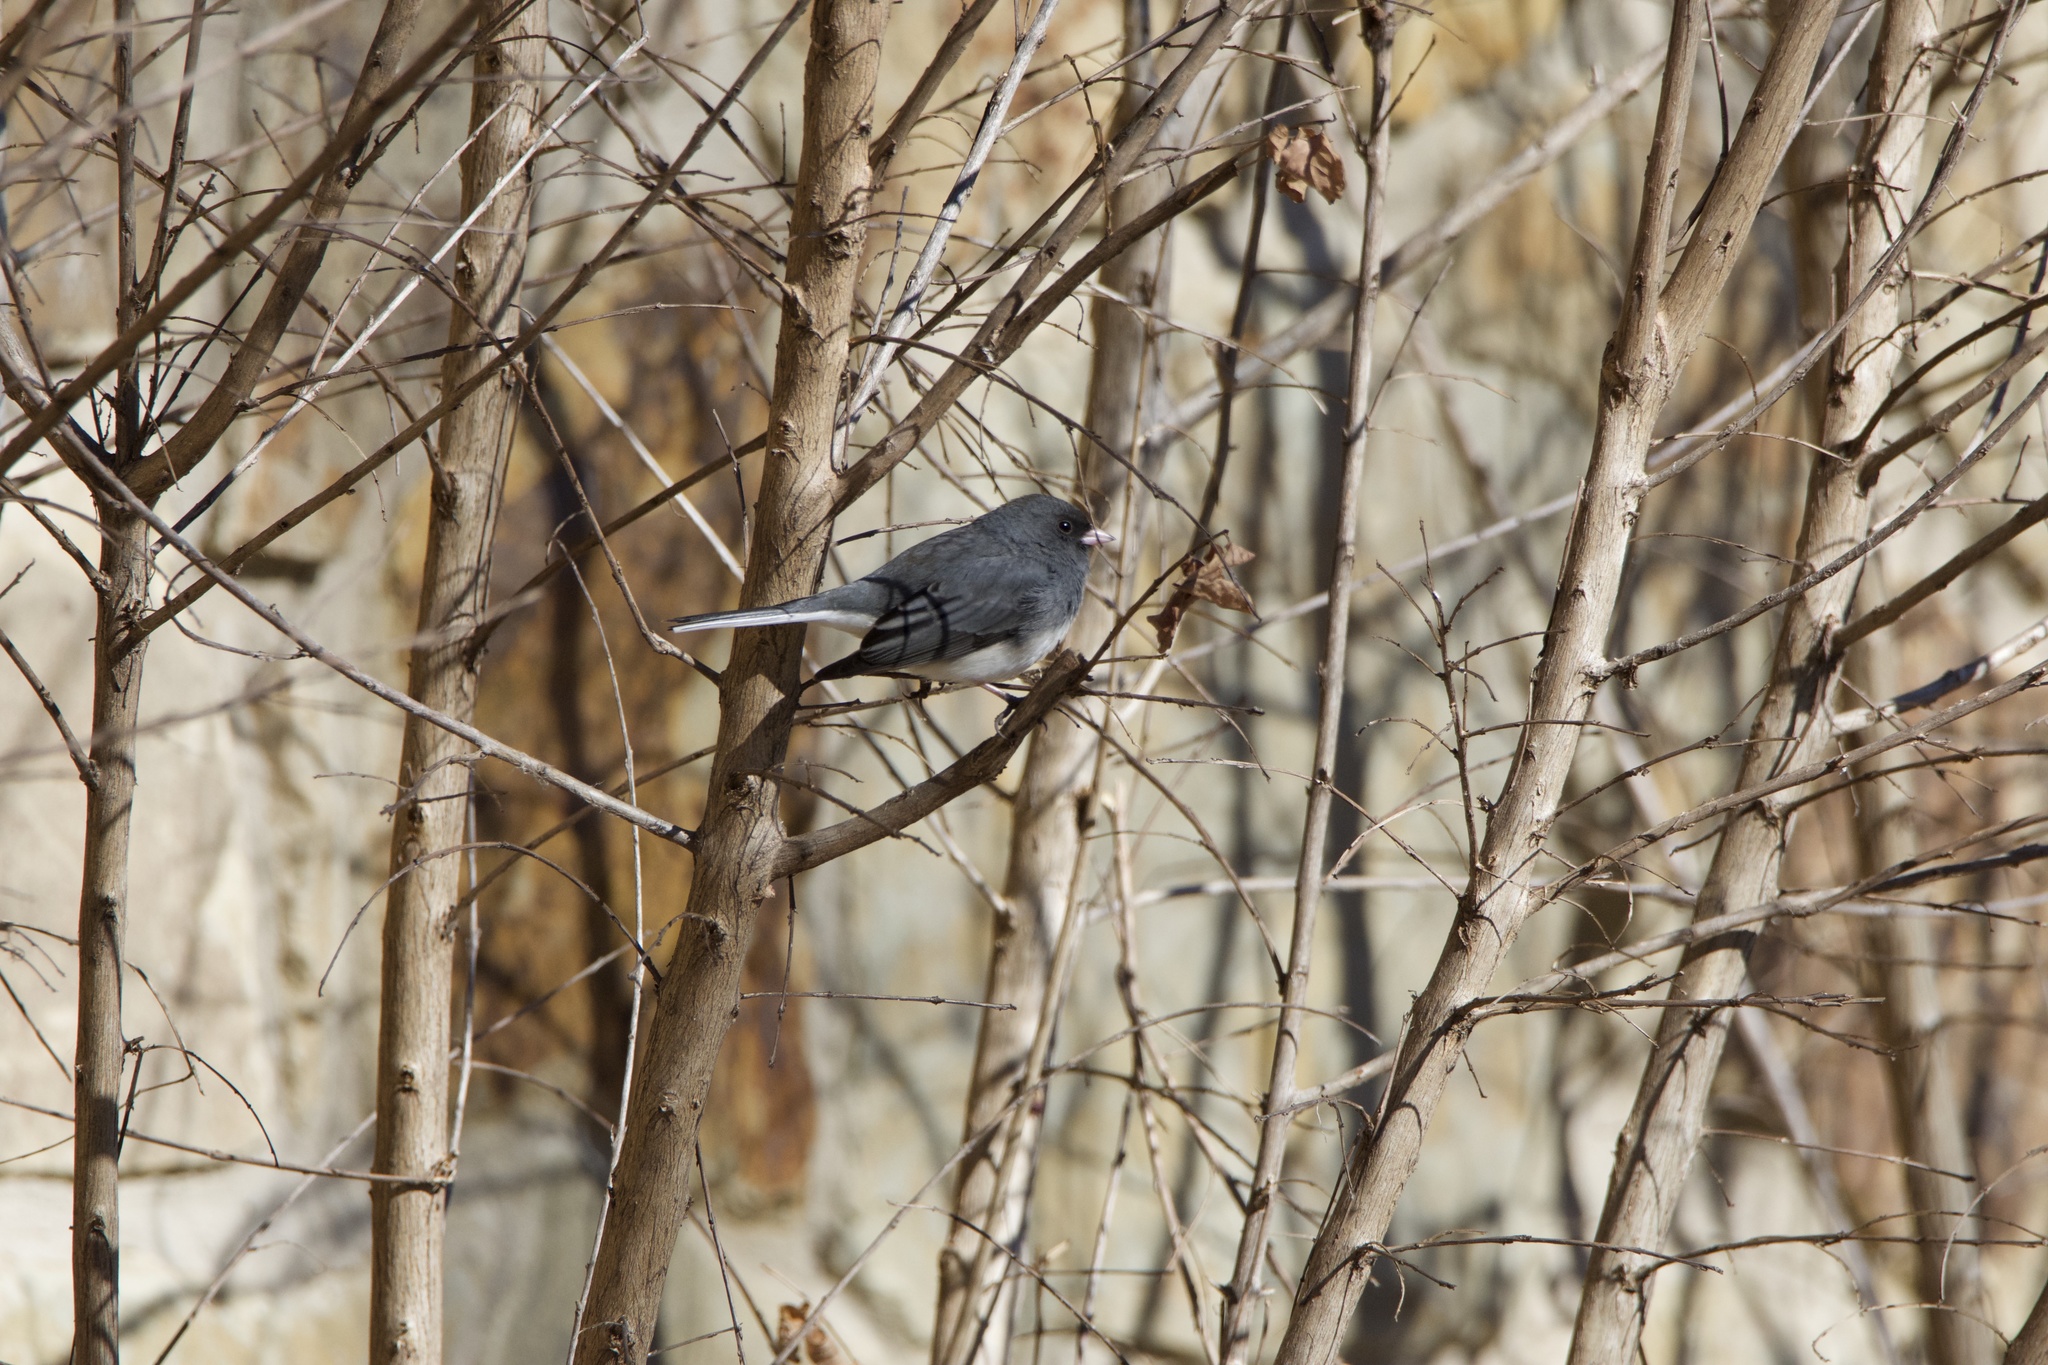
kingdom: Animalia
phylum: Chordata
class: Aves
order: Passeriformes
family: Passerellidae
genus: Junco
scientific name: Junco hyemalis
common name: Dark-eyed junco
